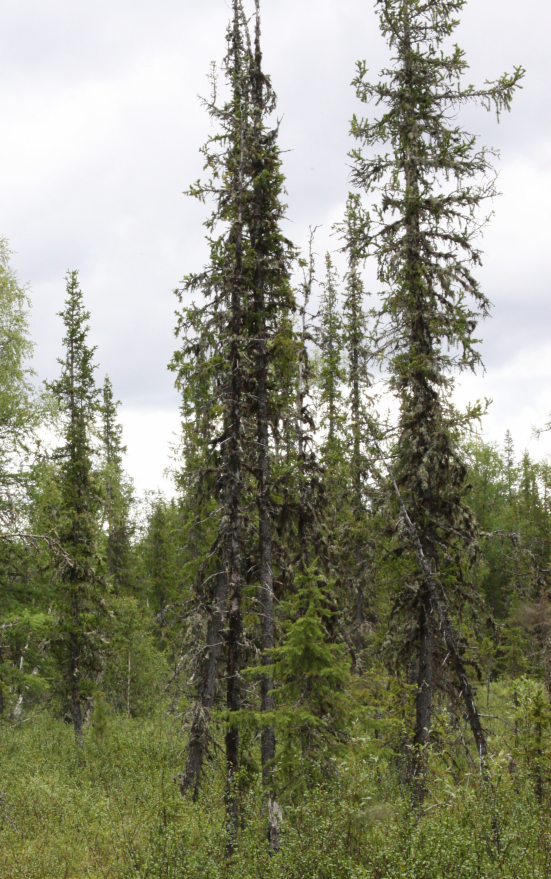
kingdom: Plantae
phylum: Tracheophyta
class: Pinopsida
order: Pinales
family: Pinaceae
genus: Picea
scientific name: Picea obovata
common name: Siberian spruce
